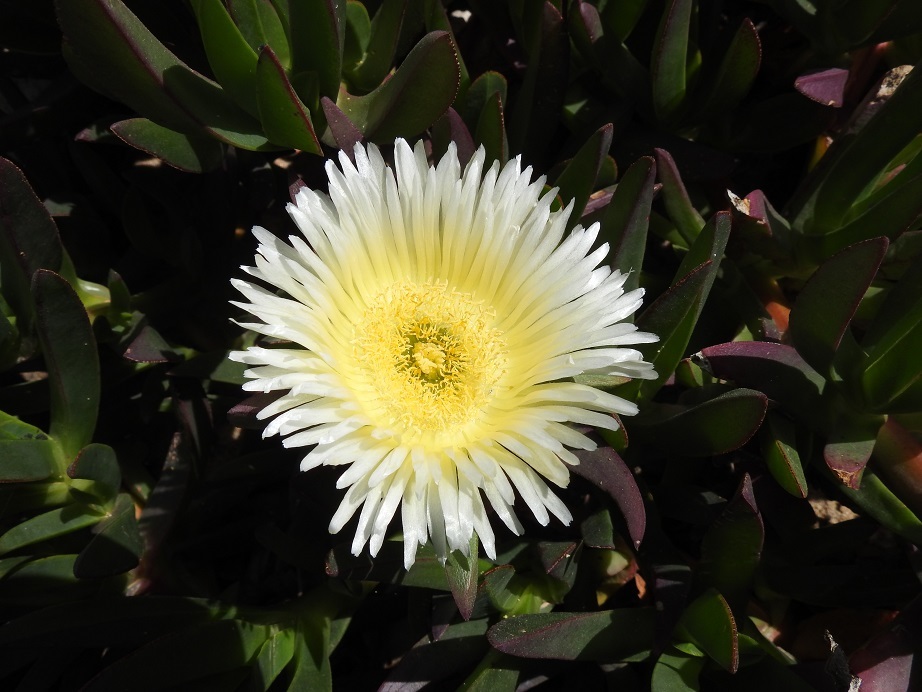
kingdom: Plantae
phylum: Tracheophyta
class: Magnoliopsida
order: Caryophyllales
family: Aizoaceae
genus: Carpobrotus
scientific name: Carpobrotus edulis
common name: Hottentot-fig
